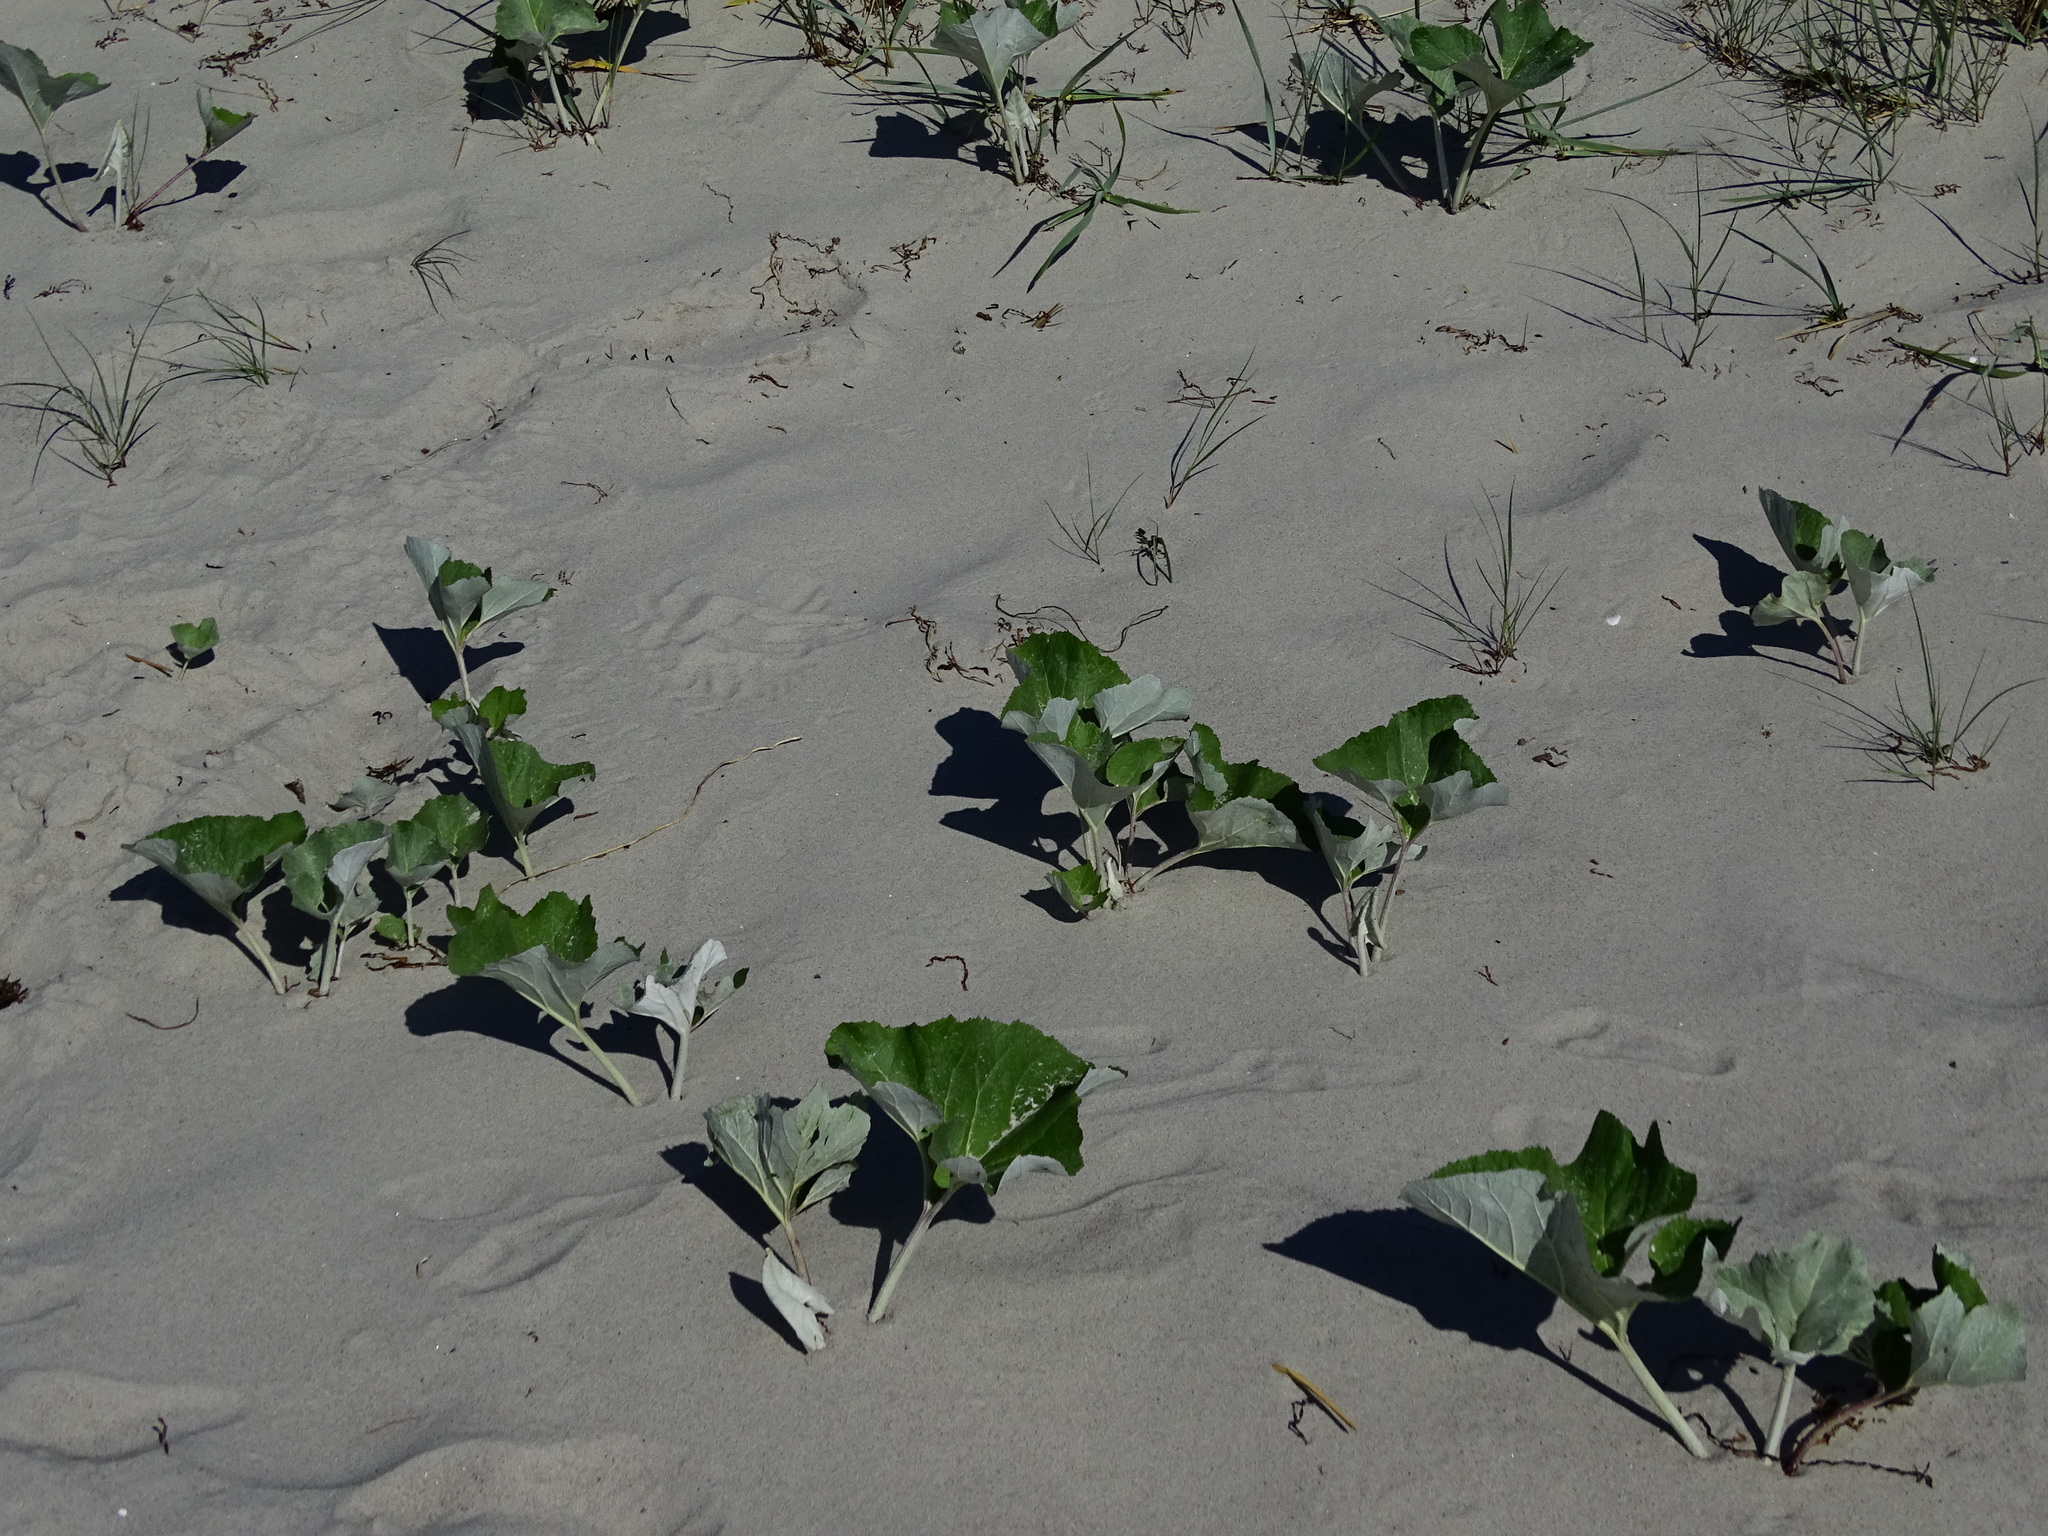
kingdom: Plantae
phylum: Tracheophyta
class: Magnoliopsida
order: Asterales
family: Asteraceae
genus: Petasites
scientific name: Petasites spurius
